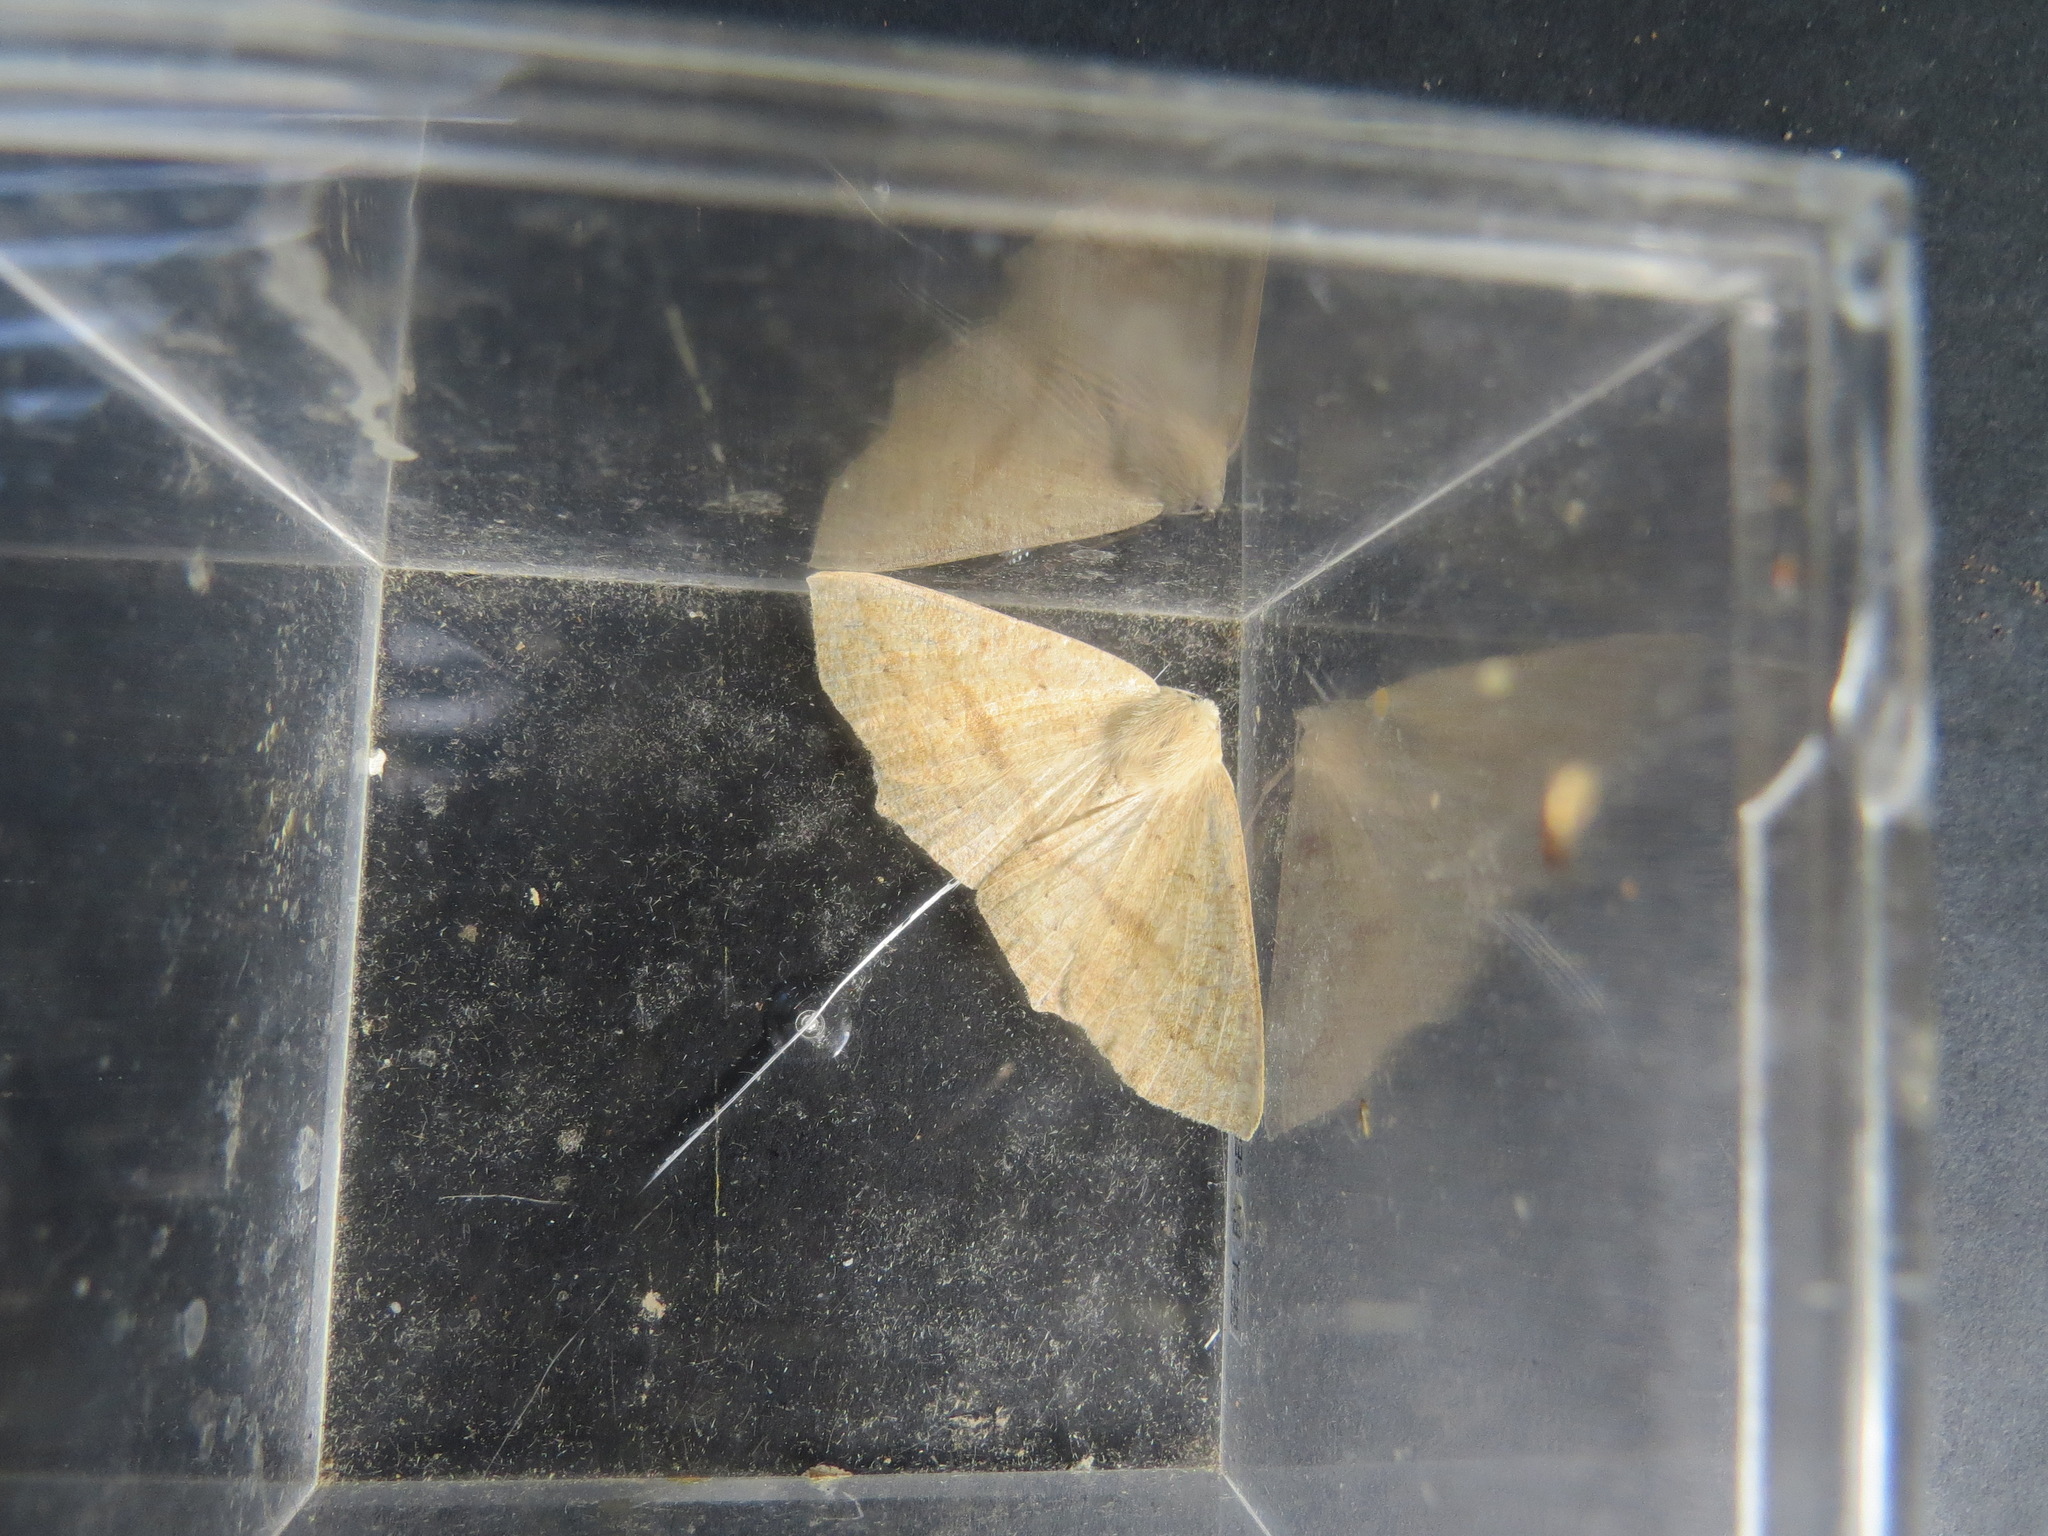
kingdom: Animalia
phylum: Arthropoda
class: Insecta
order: Lepidoptera
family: Geometridae
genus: Sabulodes
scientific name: Sabulodes aegrotata
